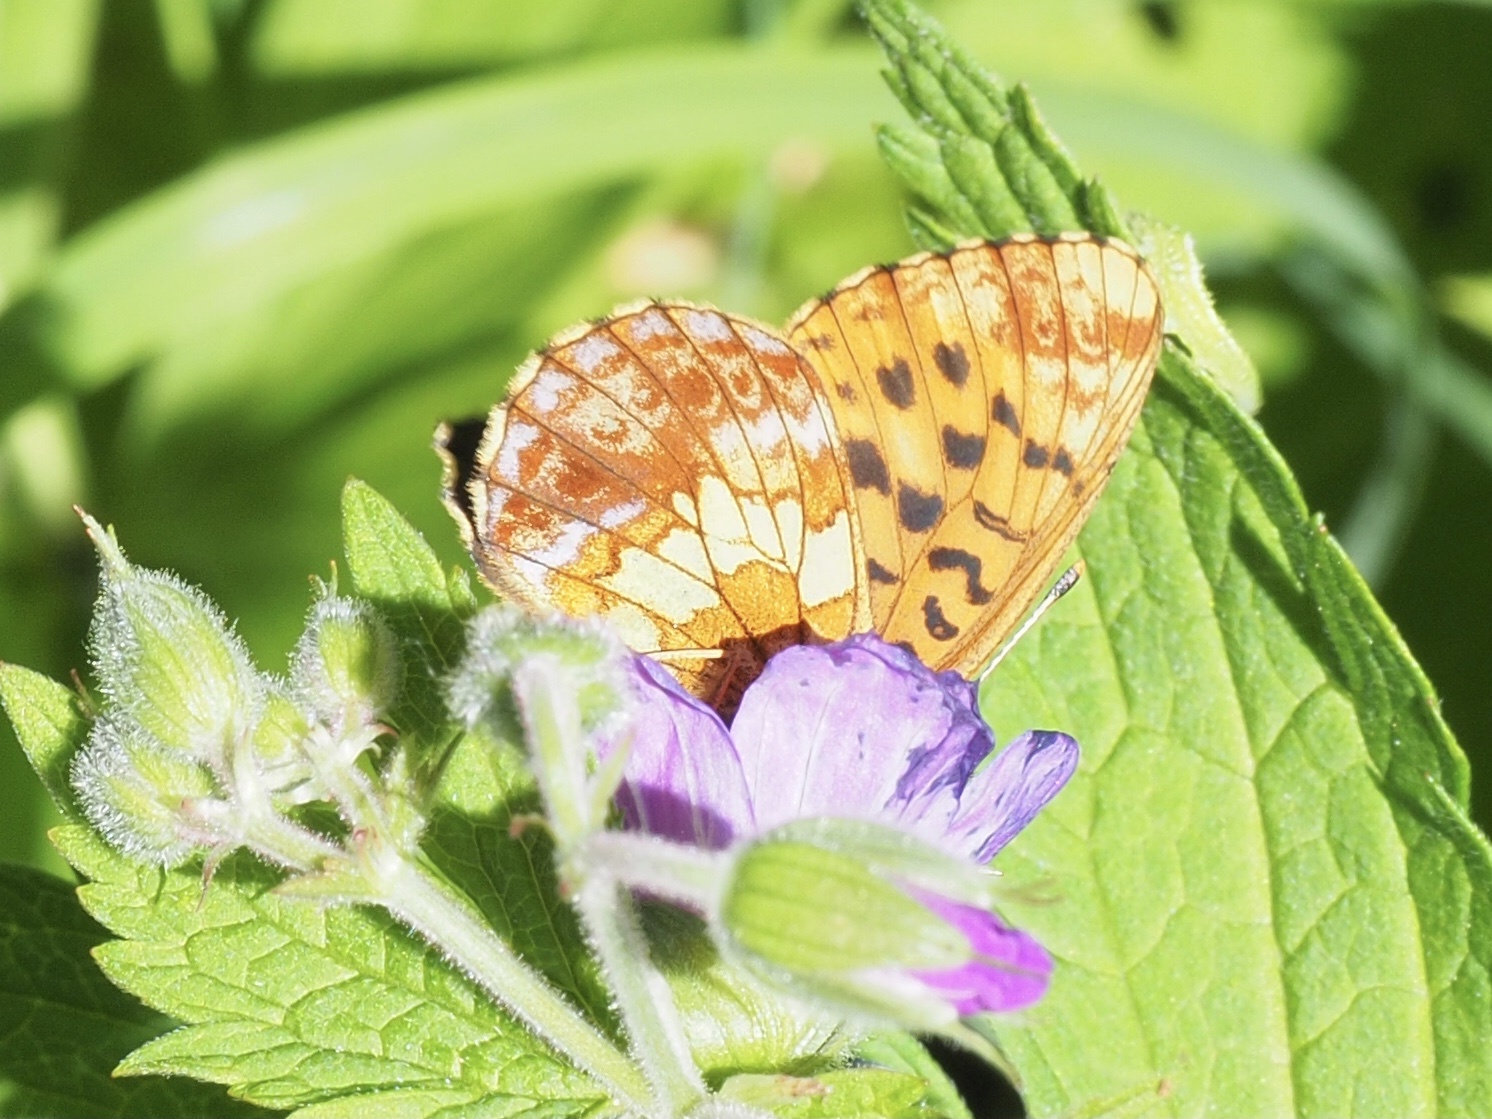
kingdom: Animalia
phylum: Arthropoda
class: Insecta
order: Lepidoptera
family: Nymphalidae
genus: Boloria
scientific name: Boloria thore
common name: Thor's fritillary
